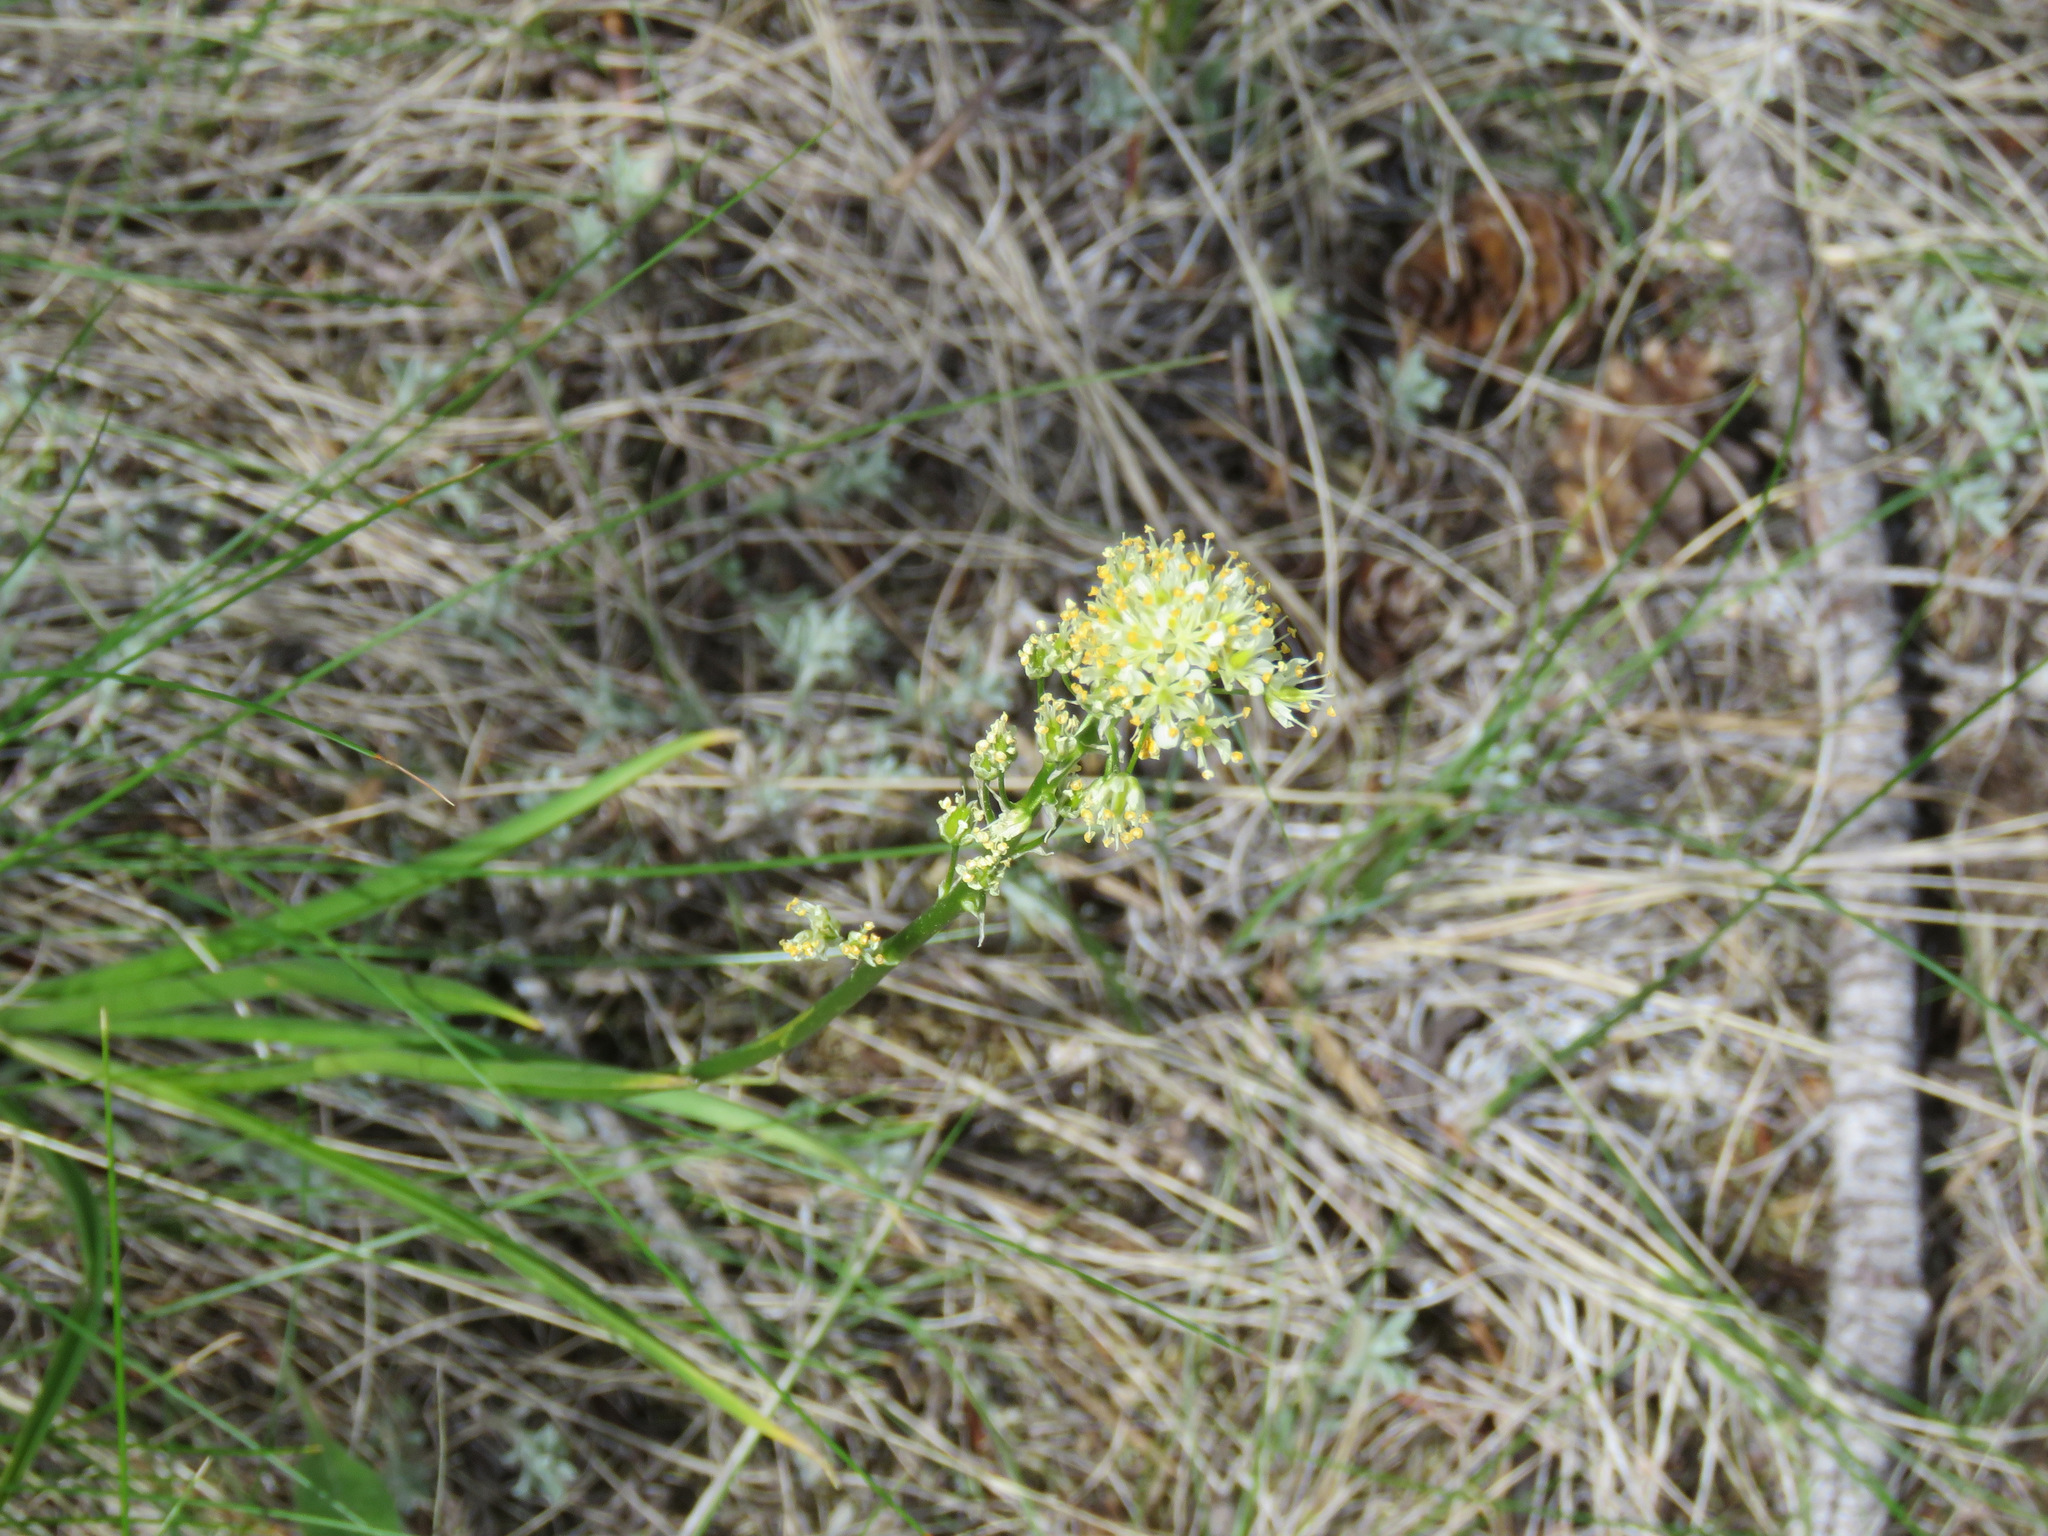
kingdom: Plantae
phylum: Tracheophyta
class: Liliopsida
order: Liliales
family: Melanthiaceae
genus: Toxicoscordion
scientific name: Toxicoscordion venenosum
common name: Meadow death camas
